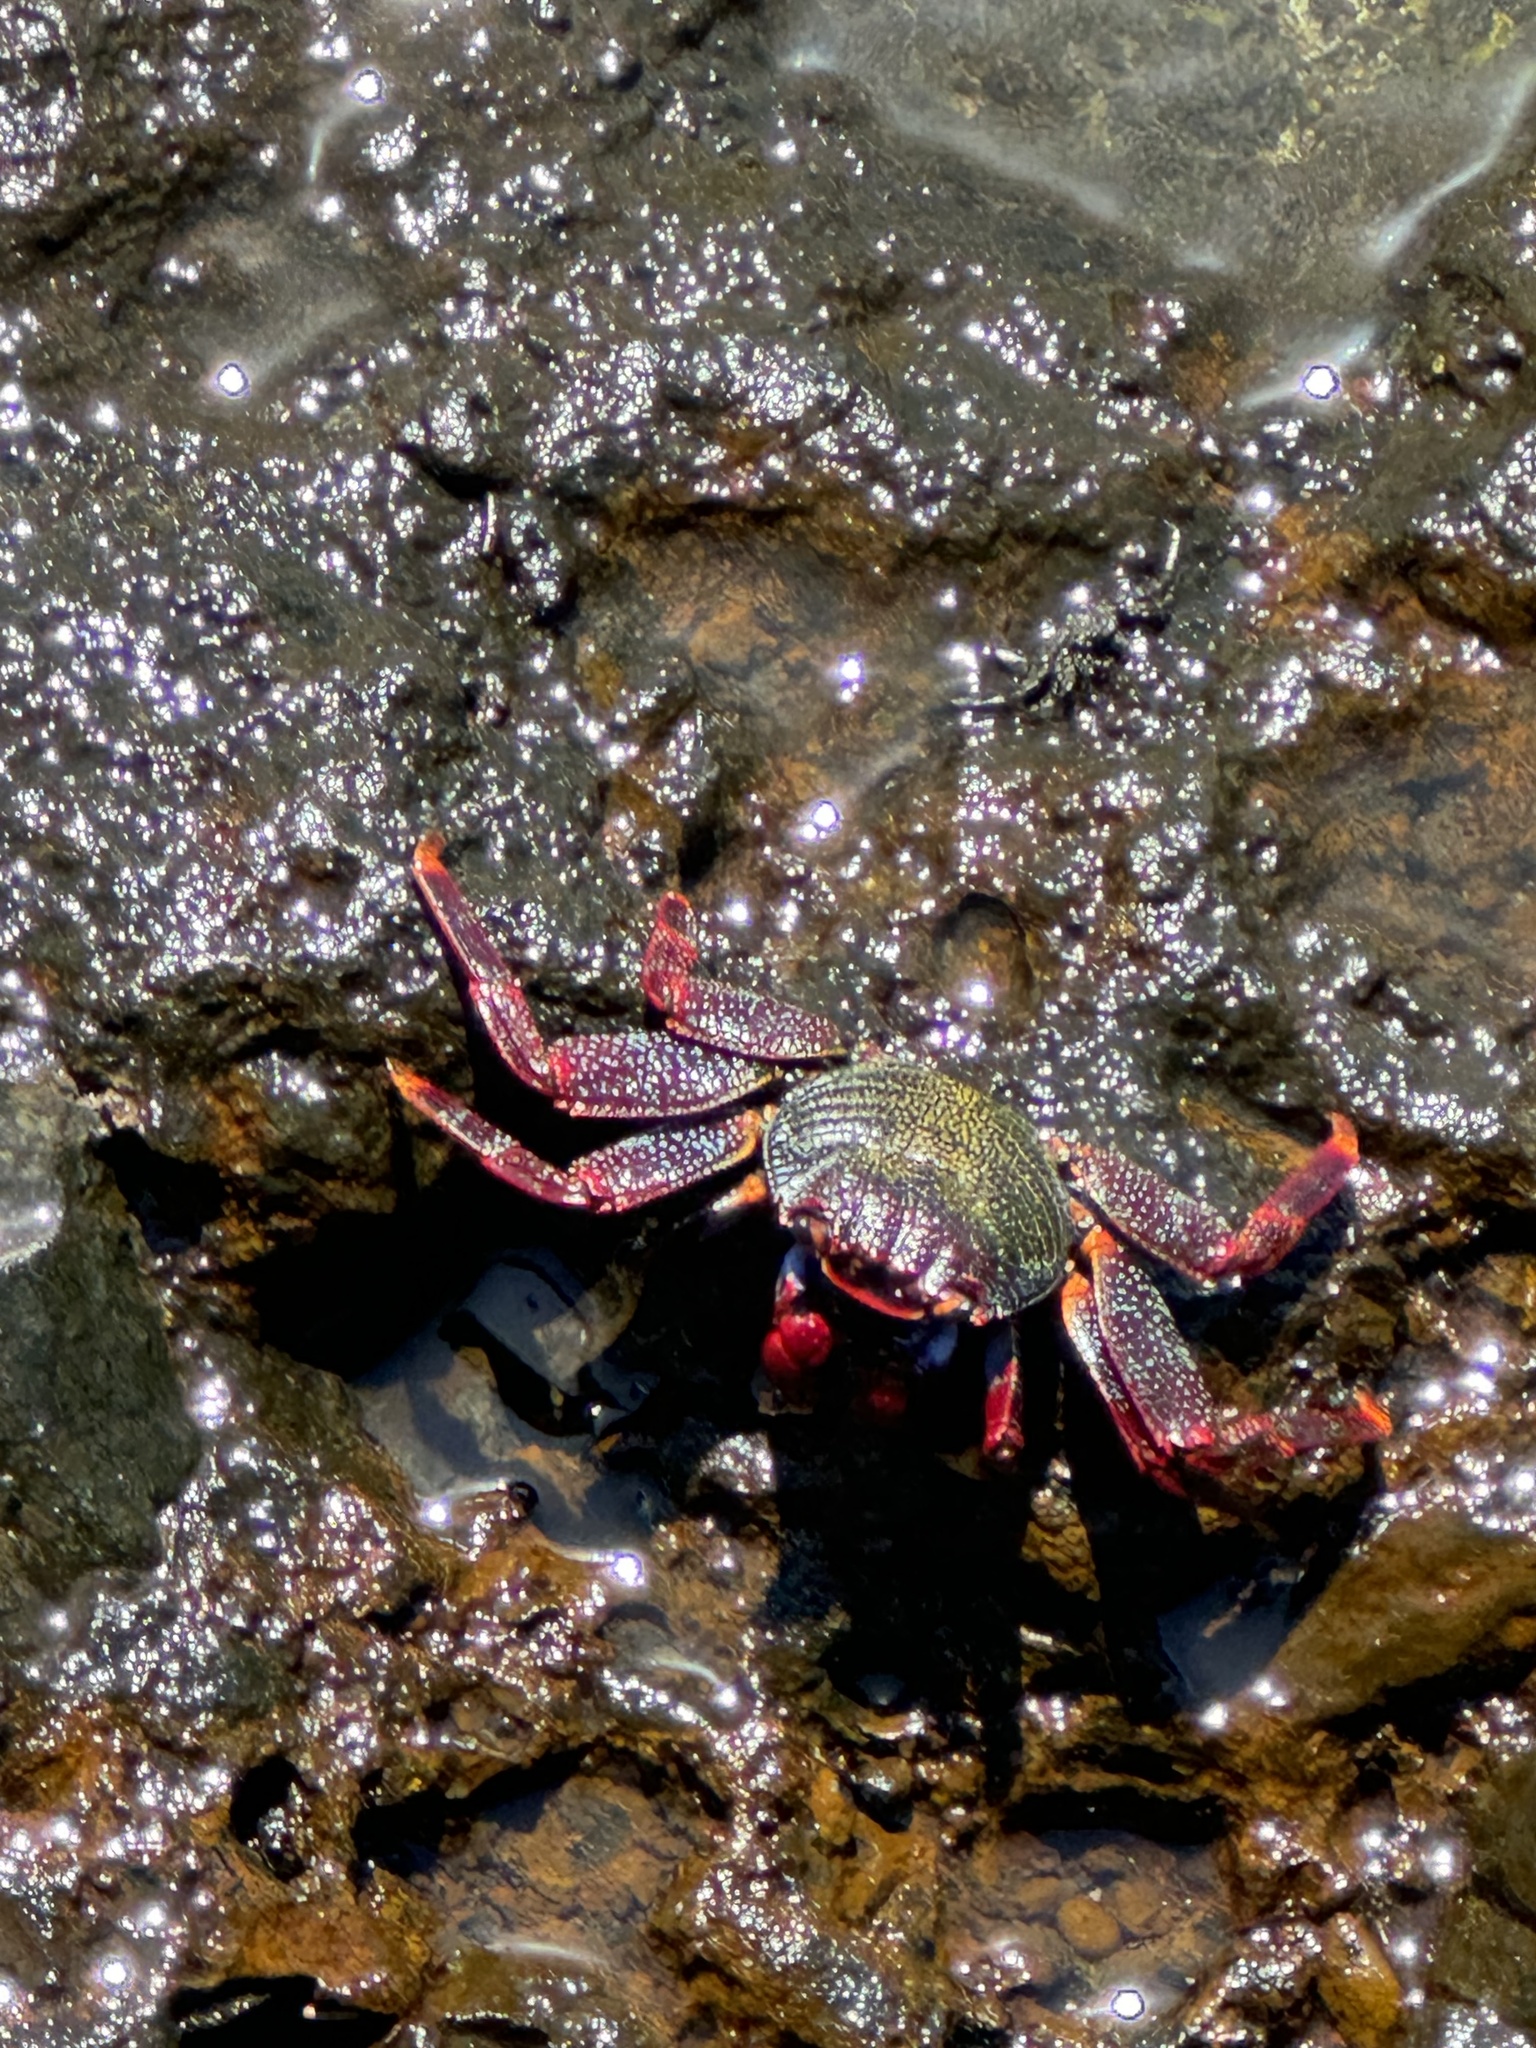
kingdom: Animalia
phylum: Arthropoda
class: Malacostraca
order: Decapoda
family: Grapsidae
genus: Grapsus
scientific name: Grapsus adscensionis
